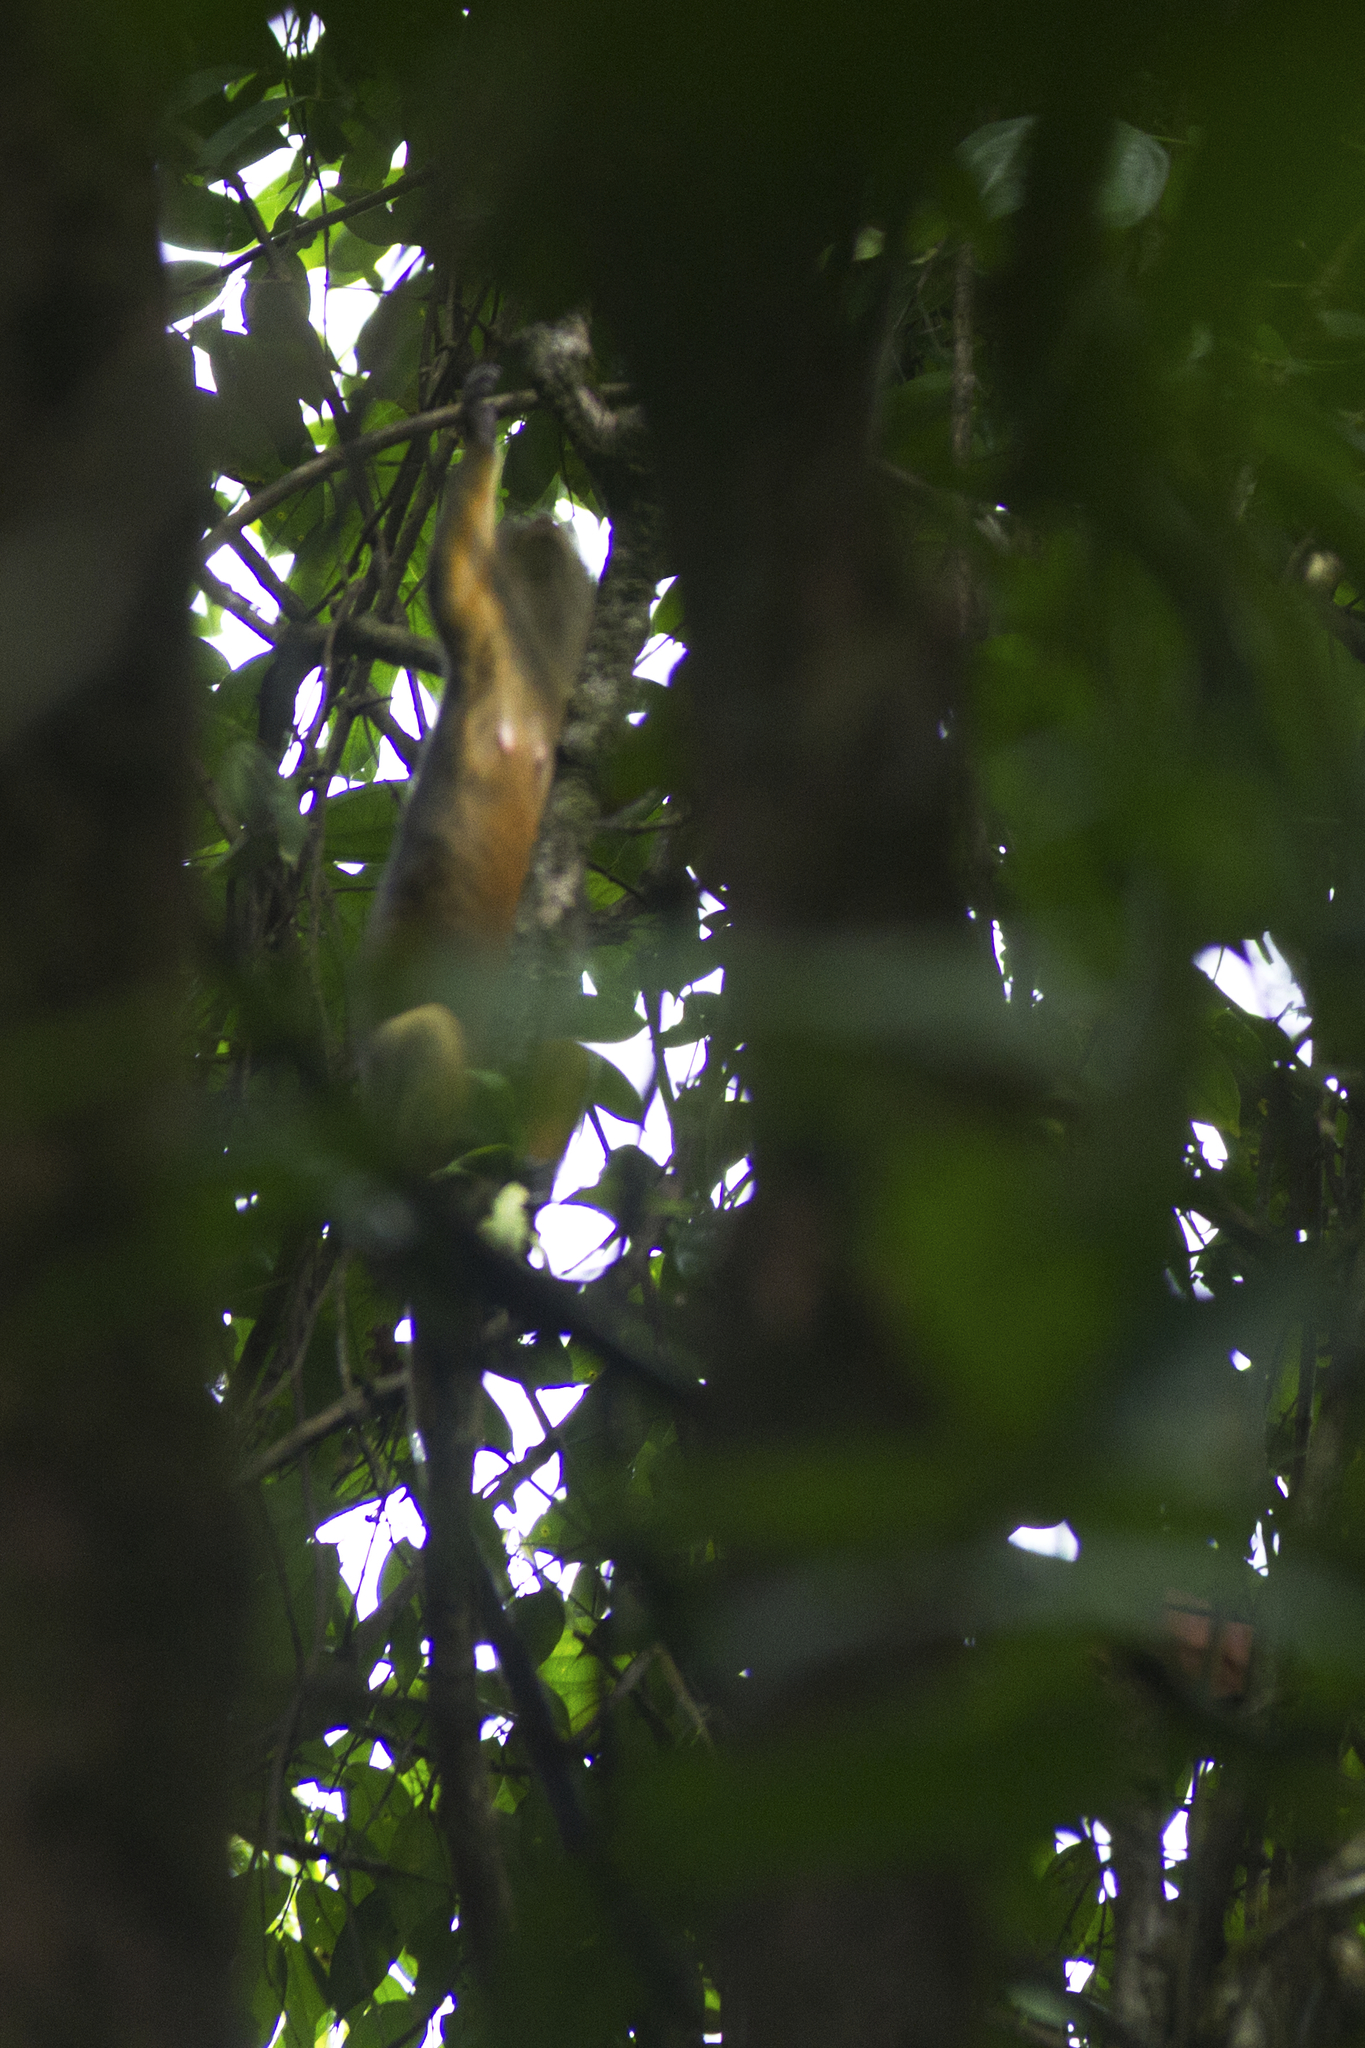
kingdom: Animalia
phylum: Chordata
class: Mammalia
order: Primates
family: Cercopithecidae
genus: Cercopithecus
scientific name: Cercopithecus pogonias
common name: Crested mona monkey
